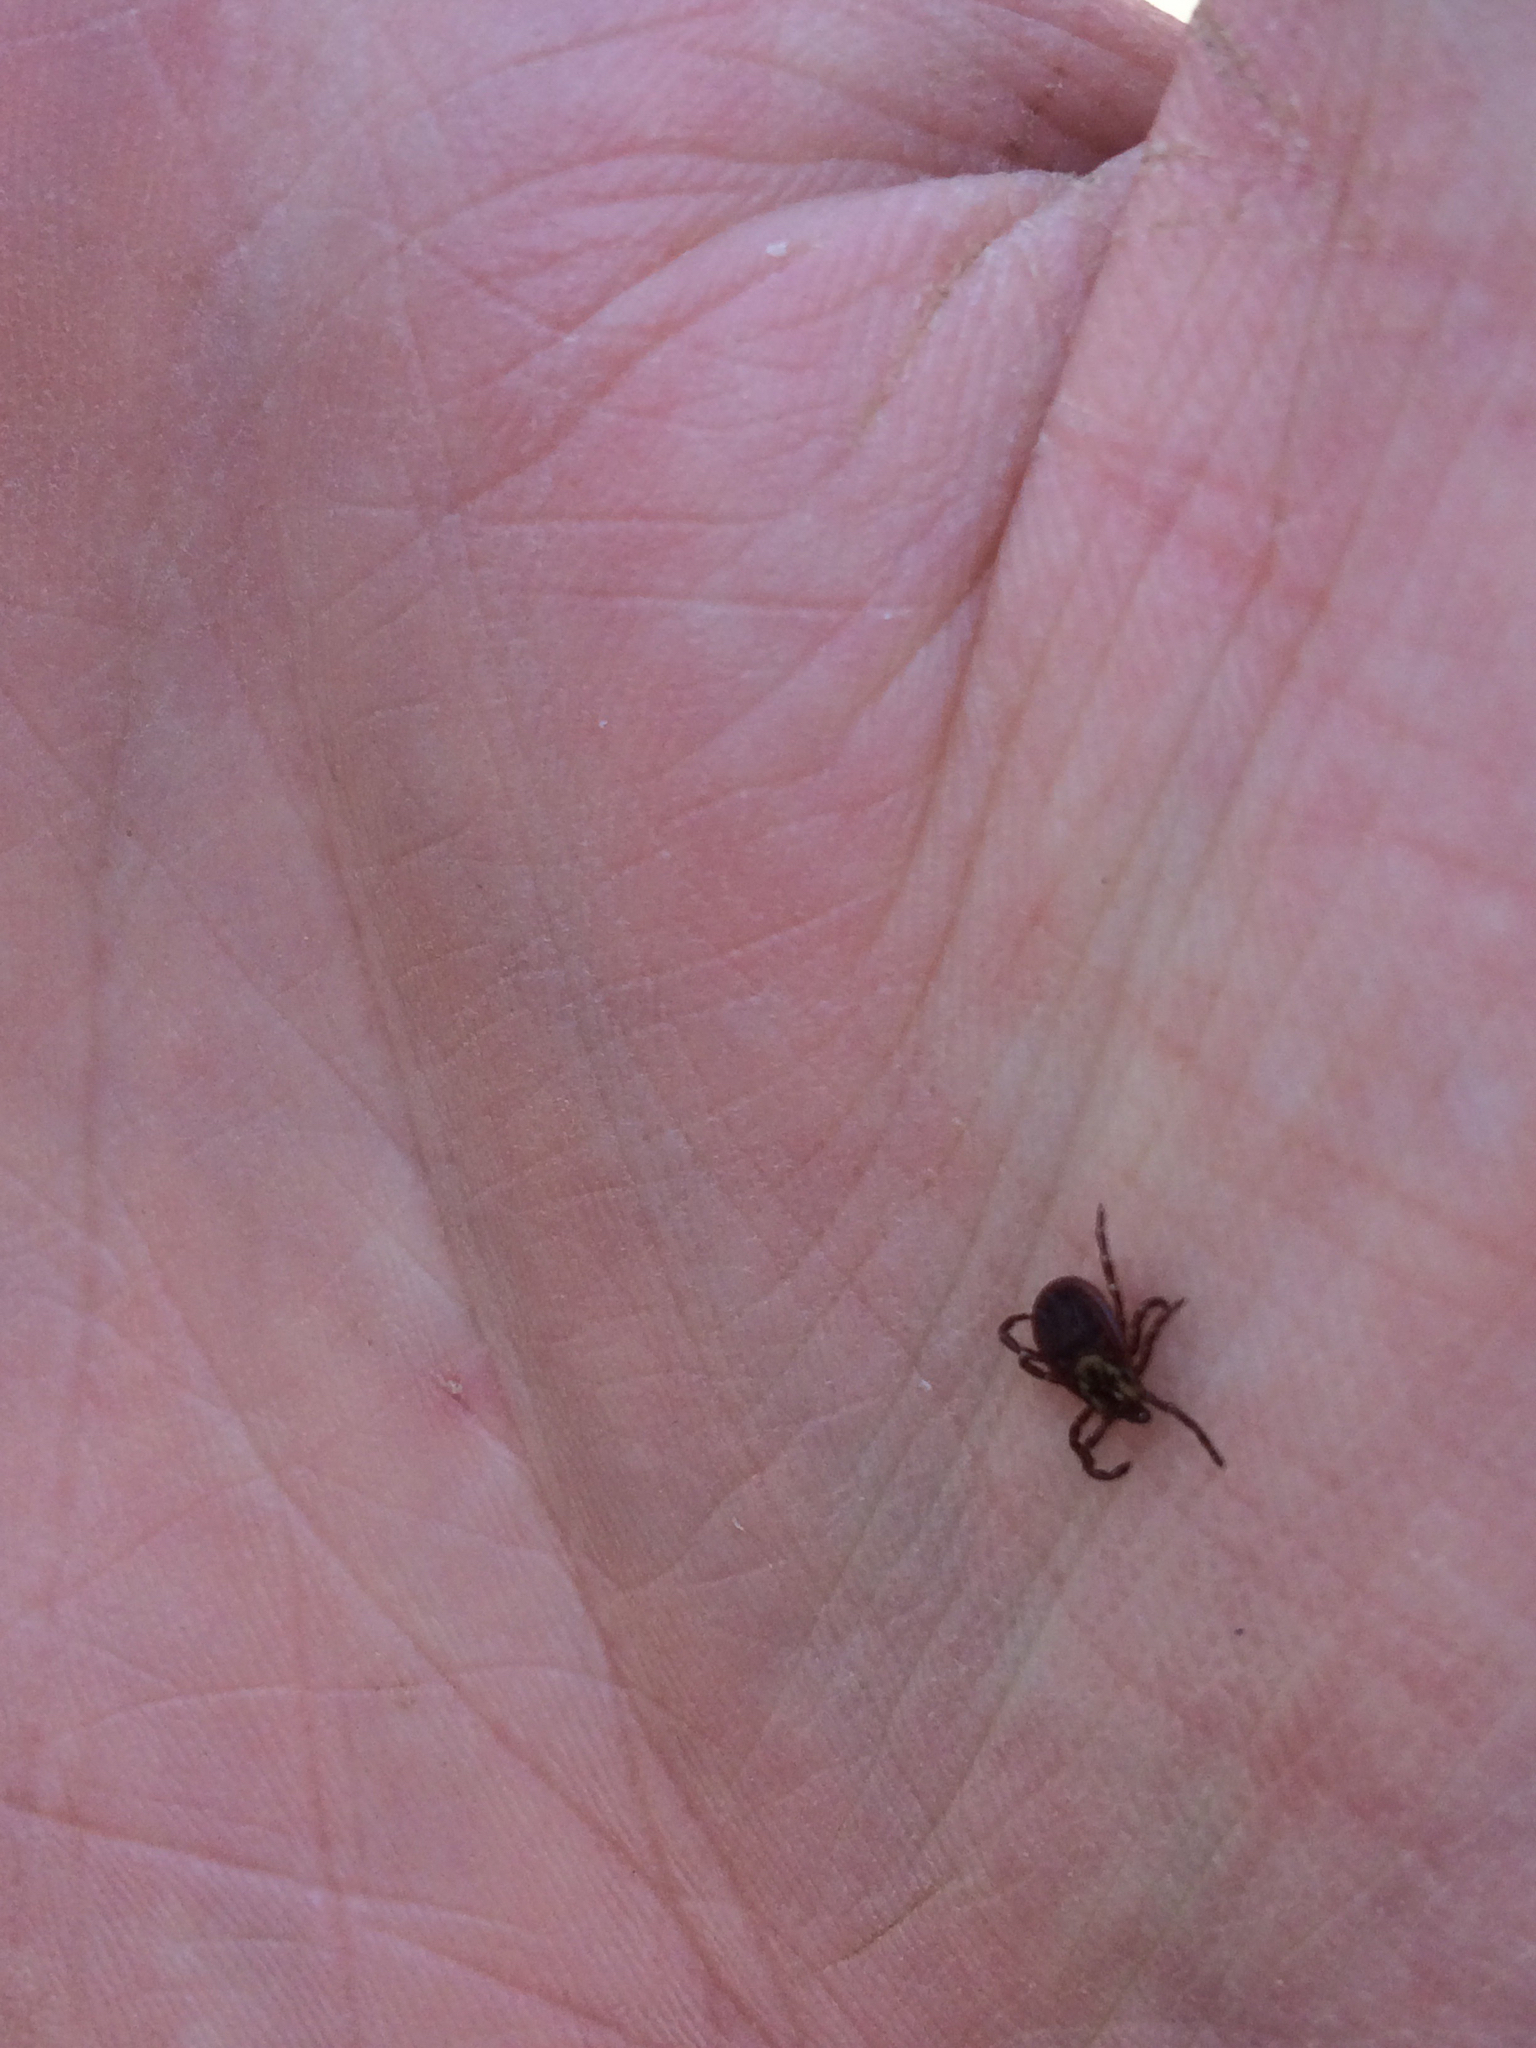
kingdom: Animalia
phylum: Arthropoda
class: Arachnida
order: Ixodida
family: Ixodidae
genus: Dermacentor
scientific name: Dermacentor variabilis
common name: American dog tick
